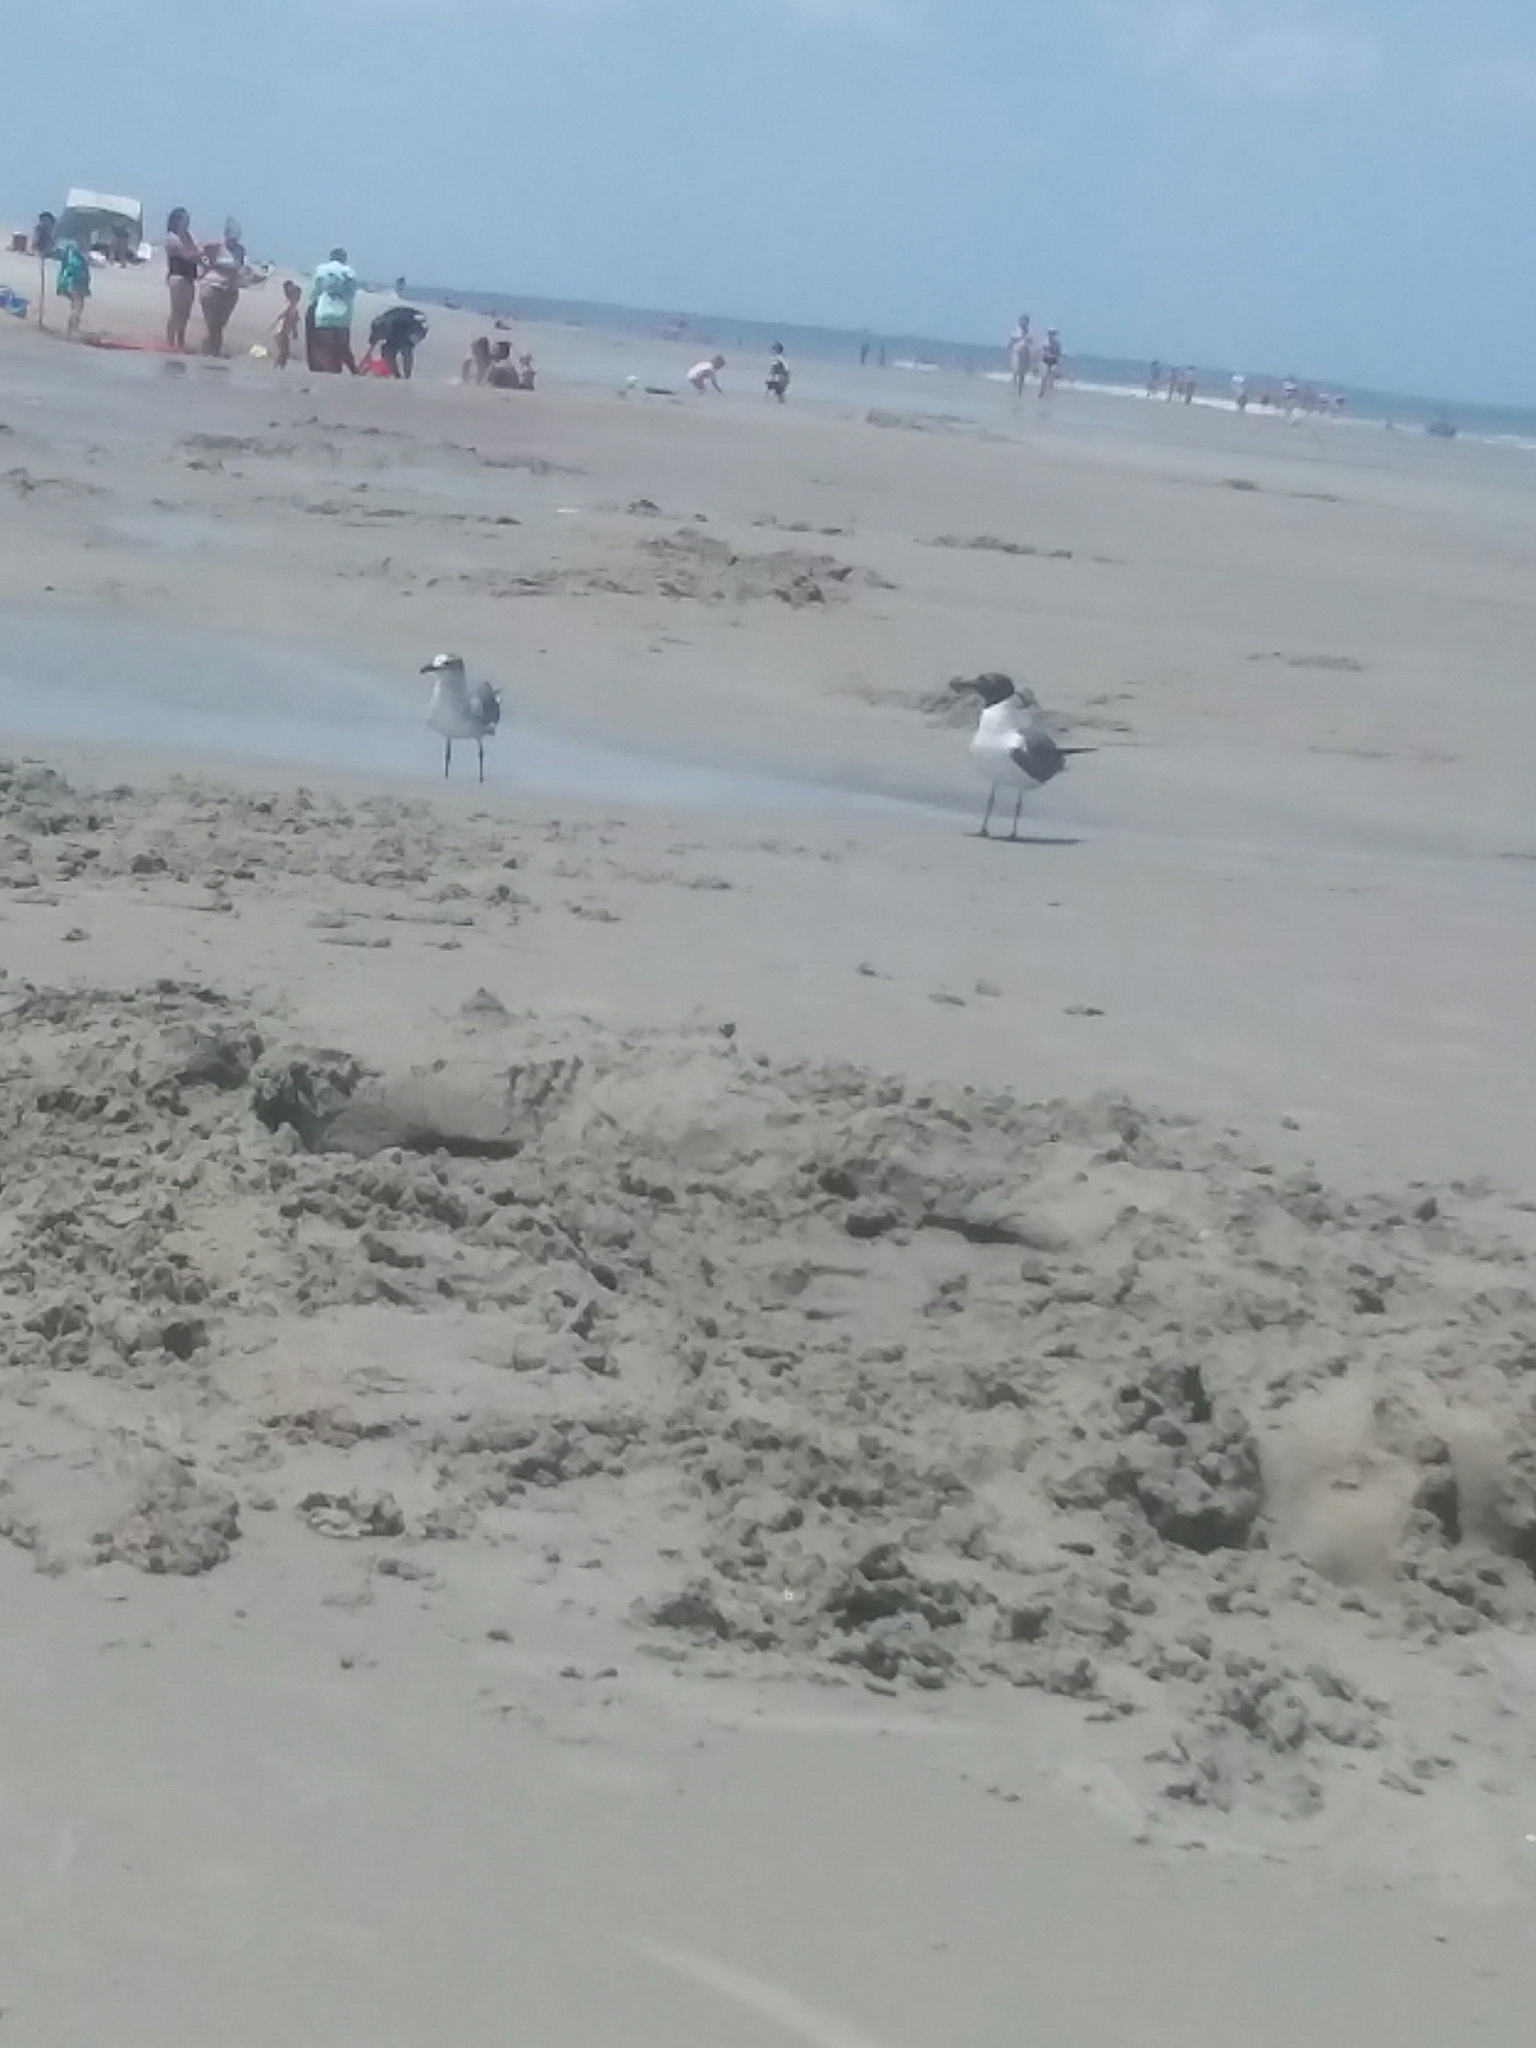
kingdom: Animalia
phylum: Chordata
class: Aves
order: Charadriiformes
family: Laridae
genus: Leucophaeus
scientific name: Leucophaeus atricilla
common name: Laughing gull
